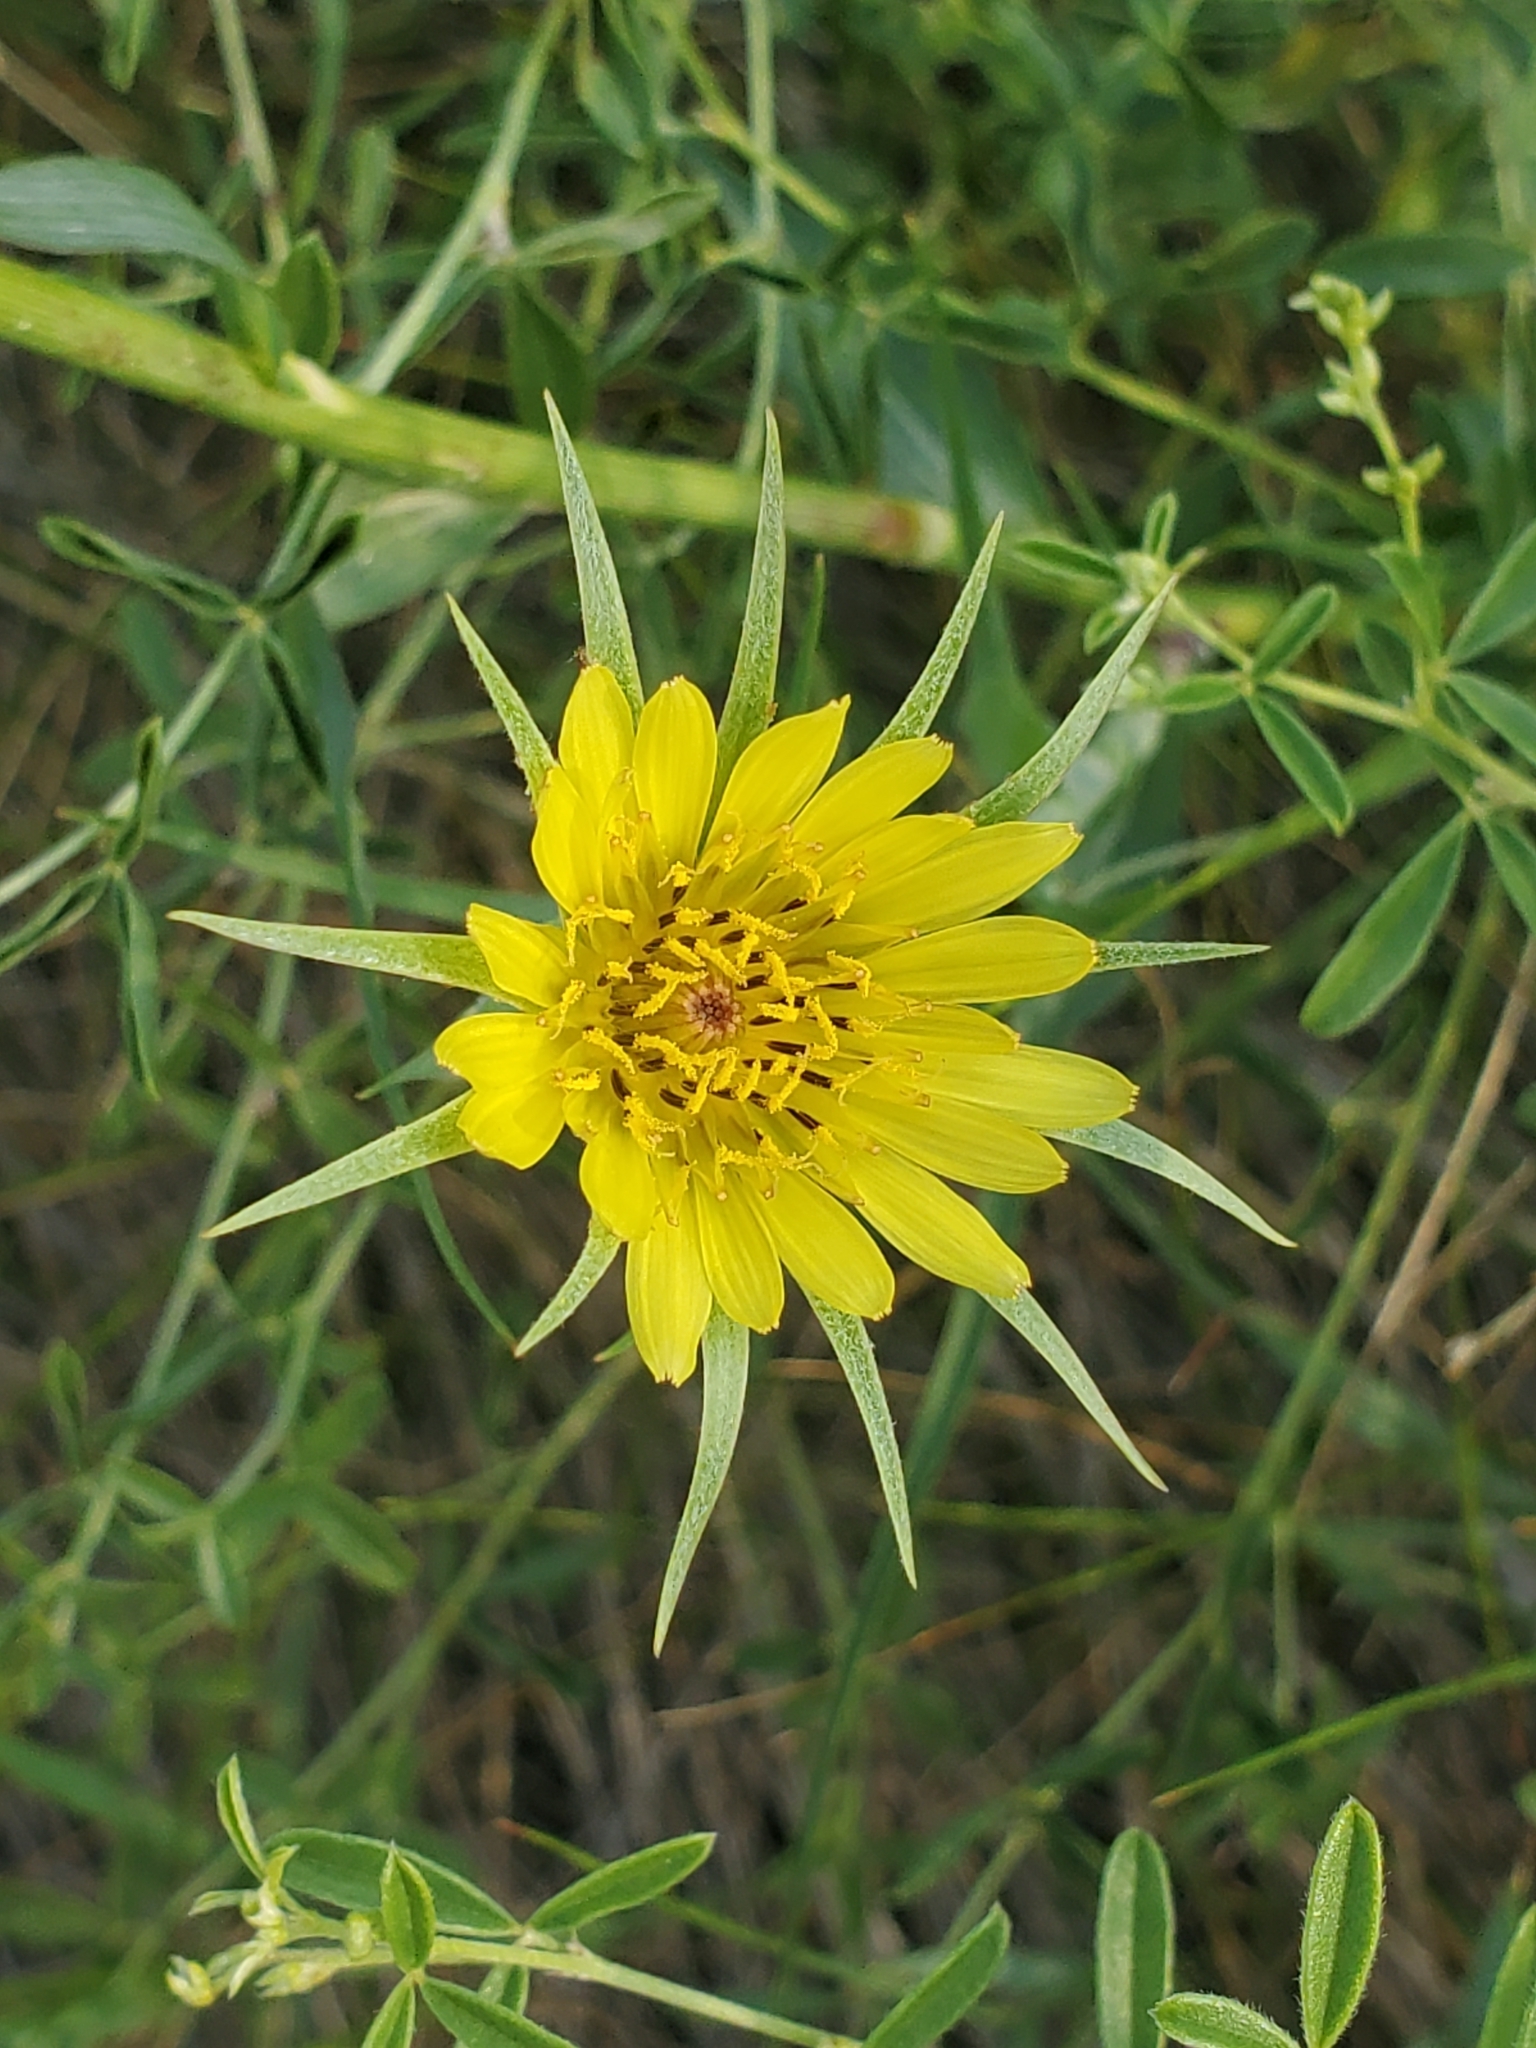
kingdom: Plantae
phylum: Tracheophyta
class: Magnoliopsida
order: Asterales
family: Asteraceae
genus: Tragopogon
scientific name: Tragopogon dubius
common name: Yellow salsify
